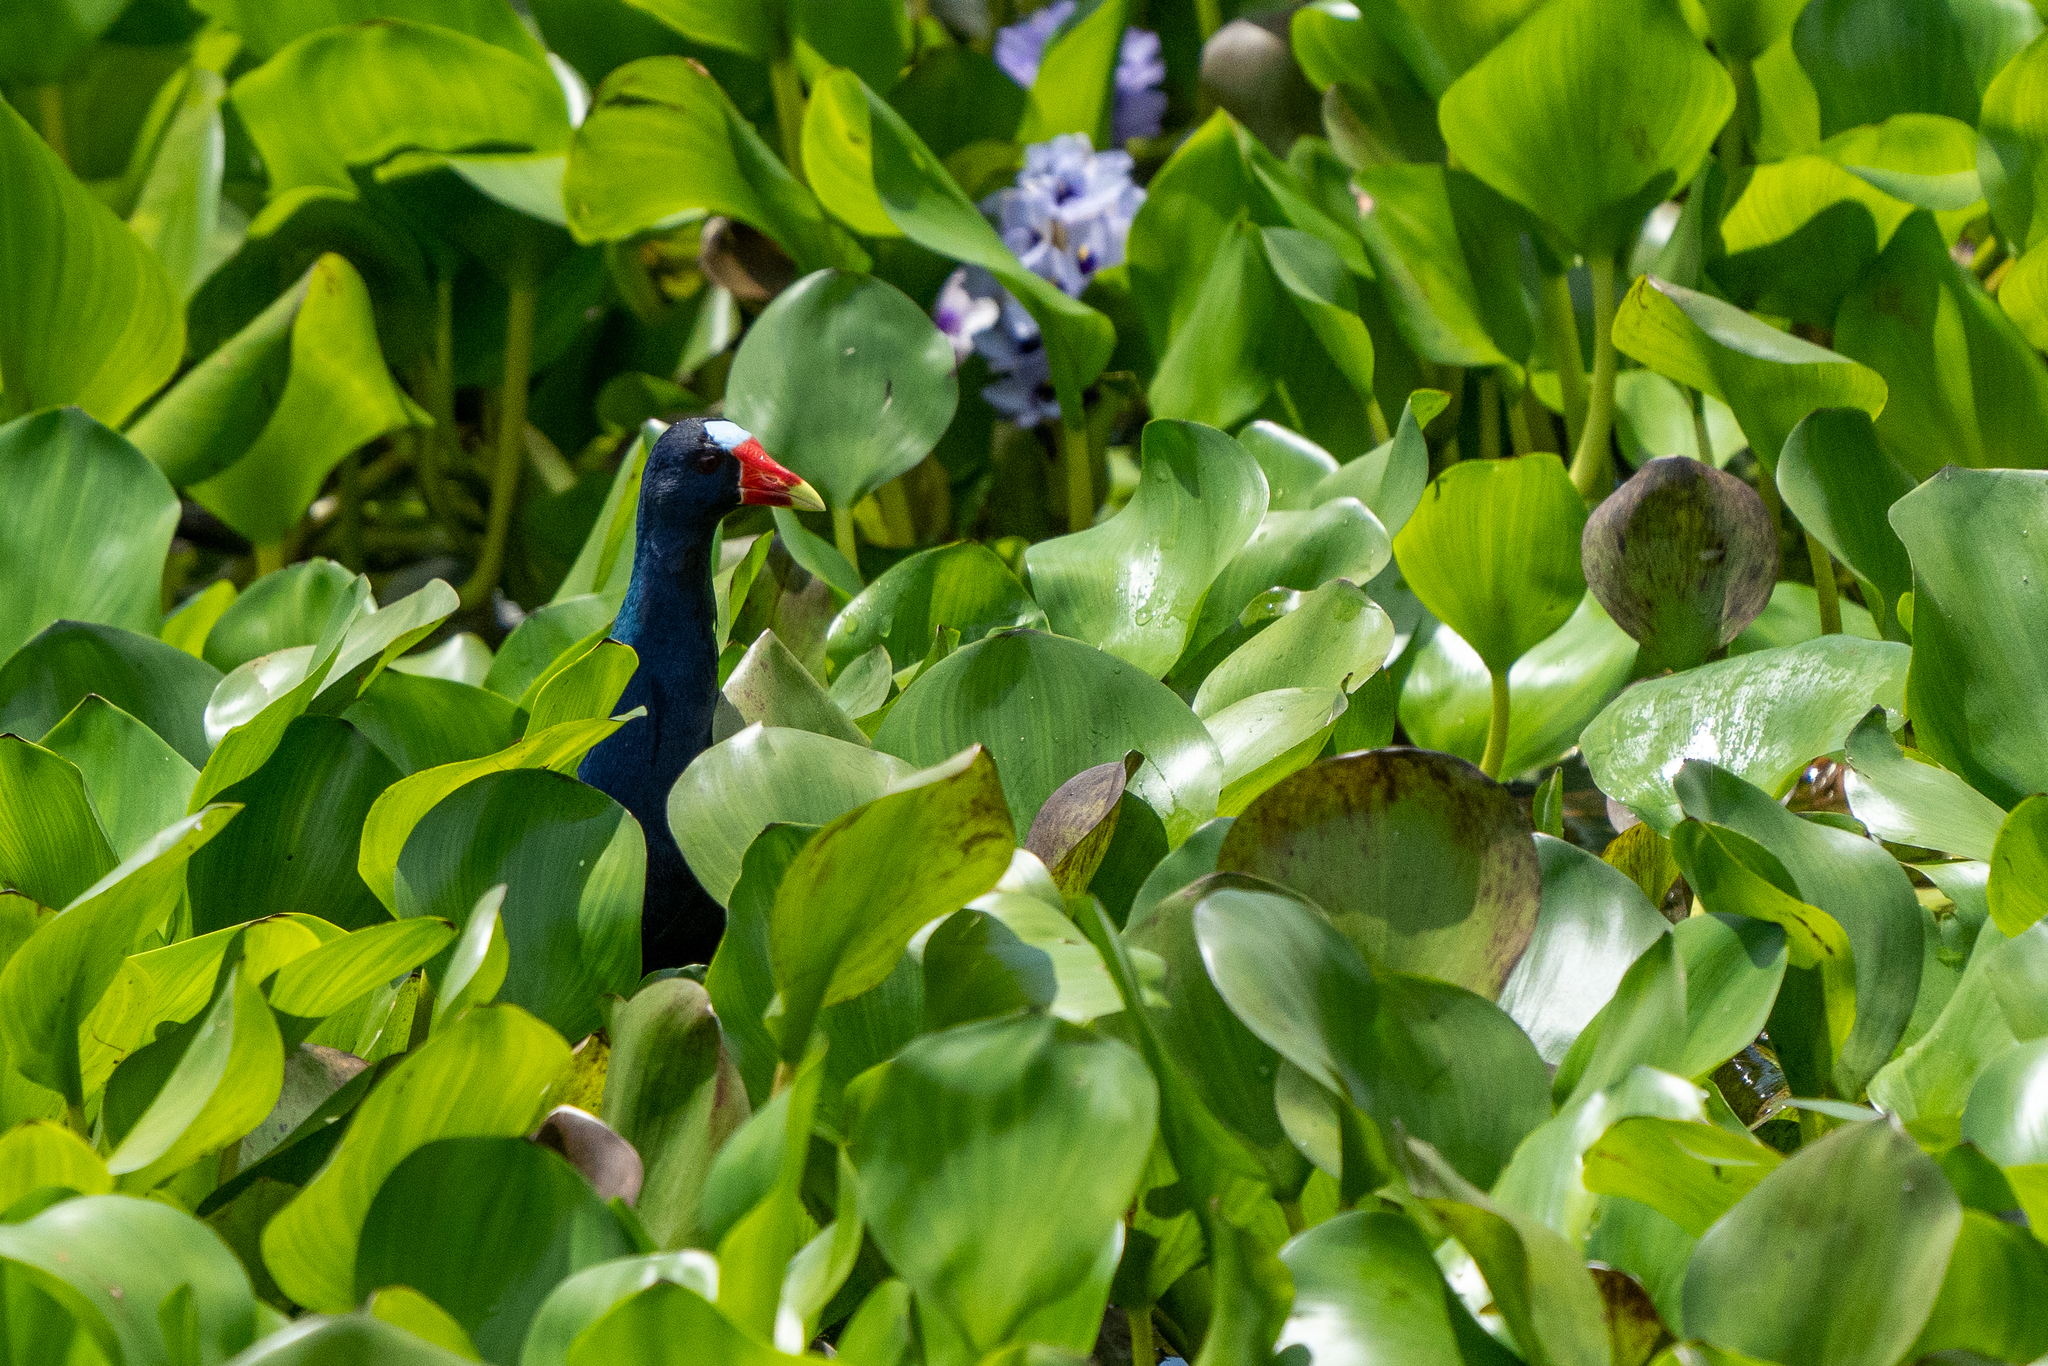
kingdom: Animalia
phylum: Chordata
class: Aves
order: Gruiformes
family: Rallidae
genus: Porphyrio
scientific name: Porphyrio martinica
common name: Purple gallinule
